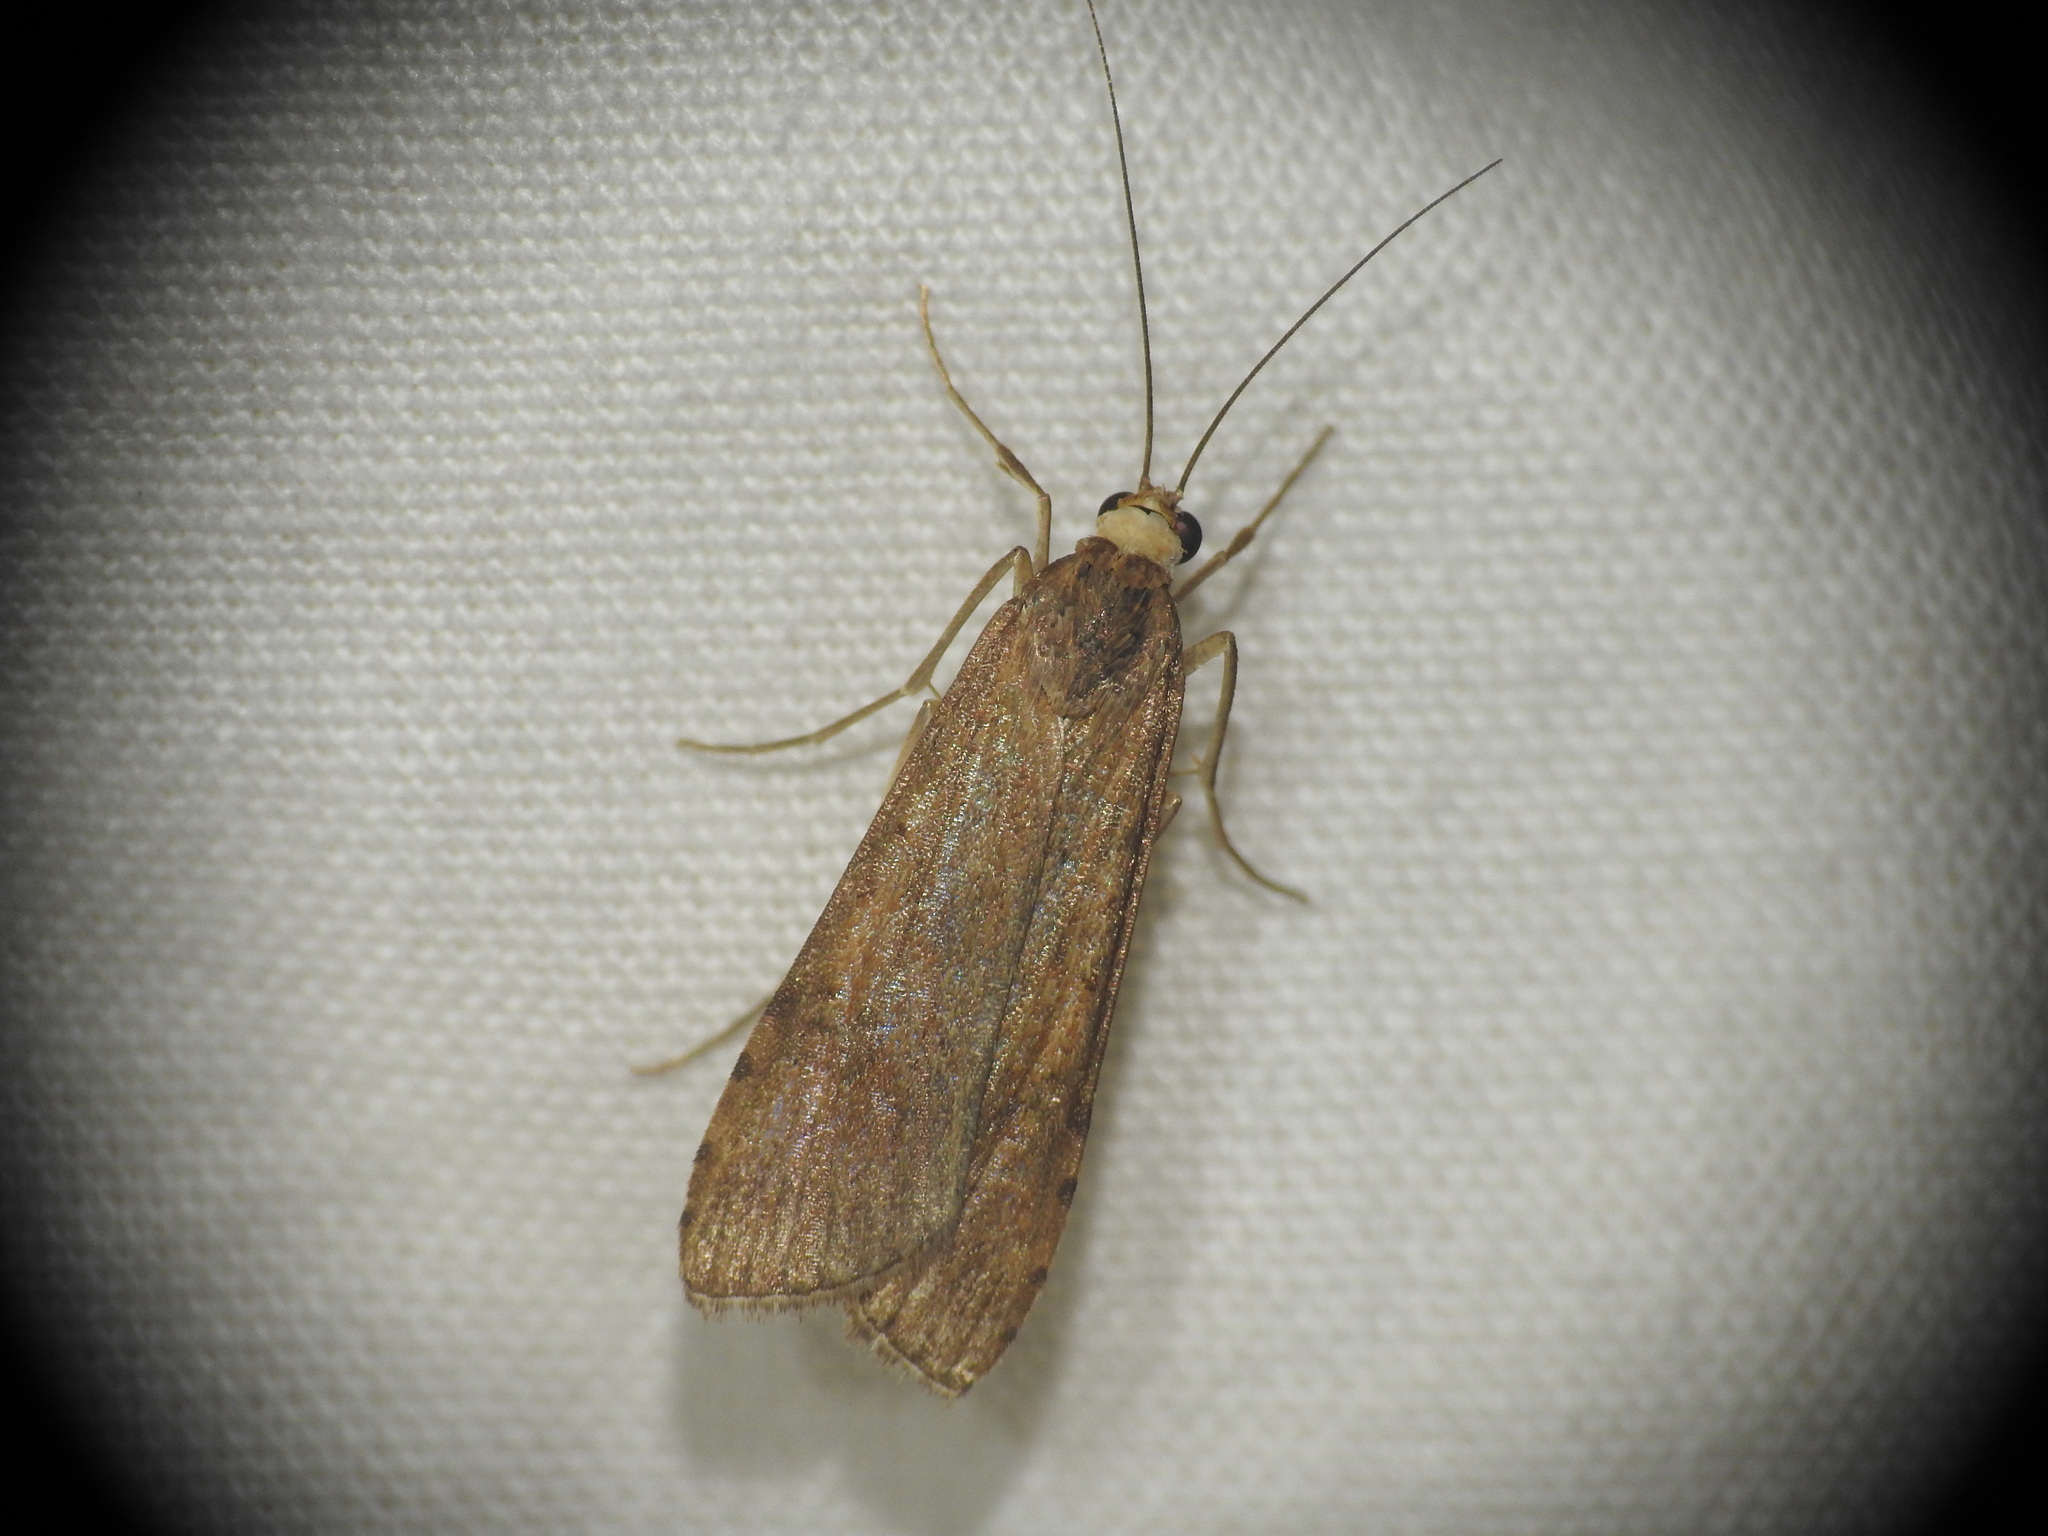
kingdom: Animalia
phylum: Arthropoda
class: Insecta
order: Lepidoptera
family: Crambidae
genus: Nomophila
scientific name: Nomophila noctuella
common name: Rush veneer
